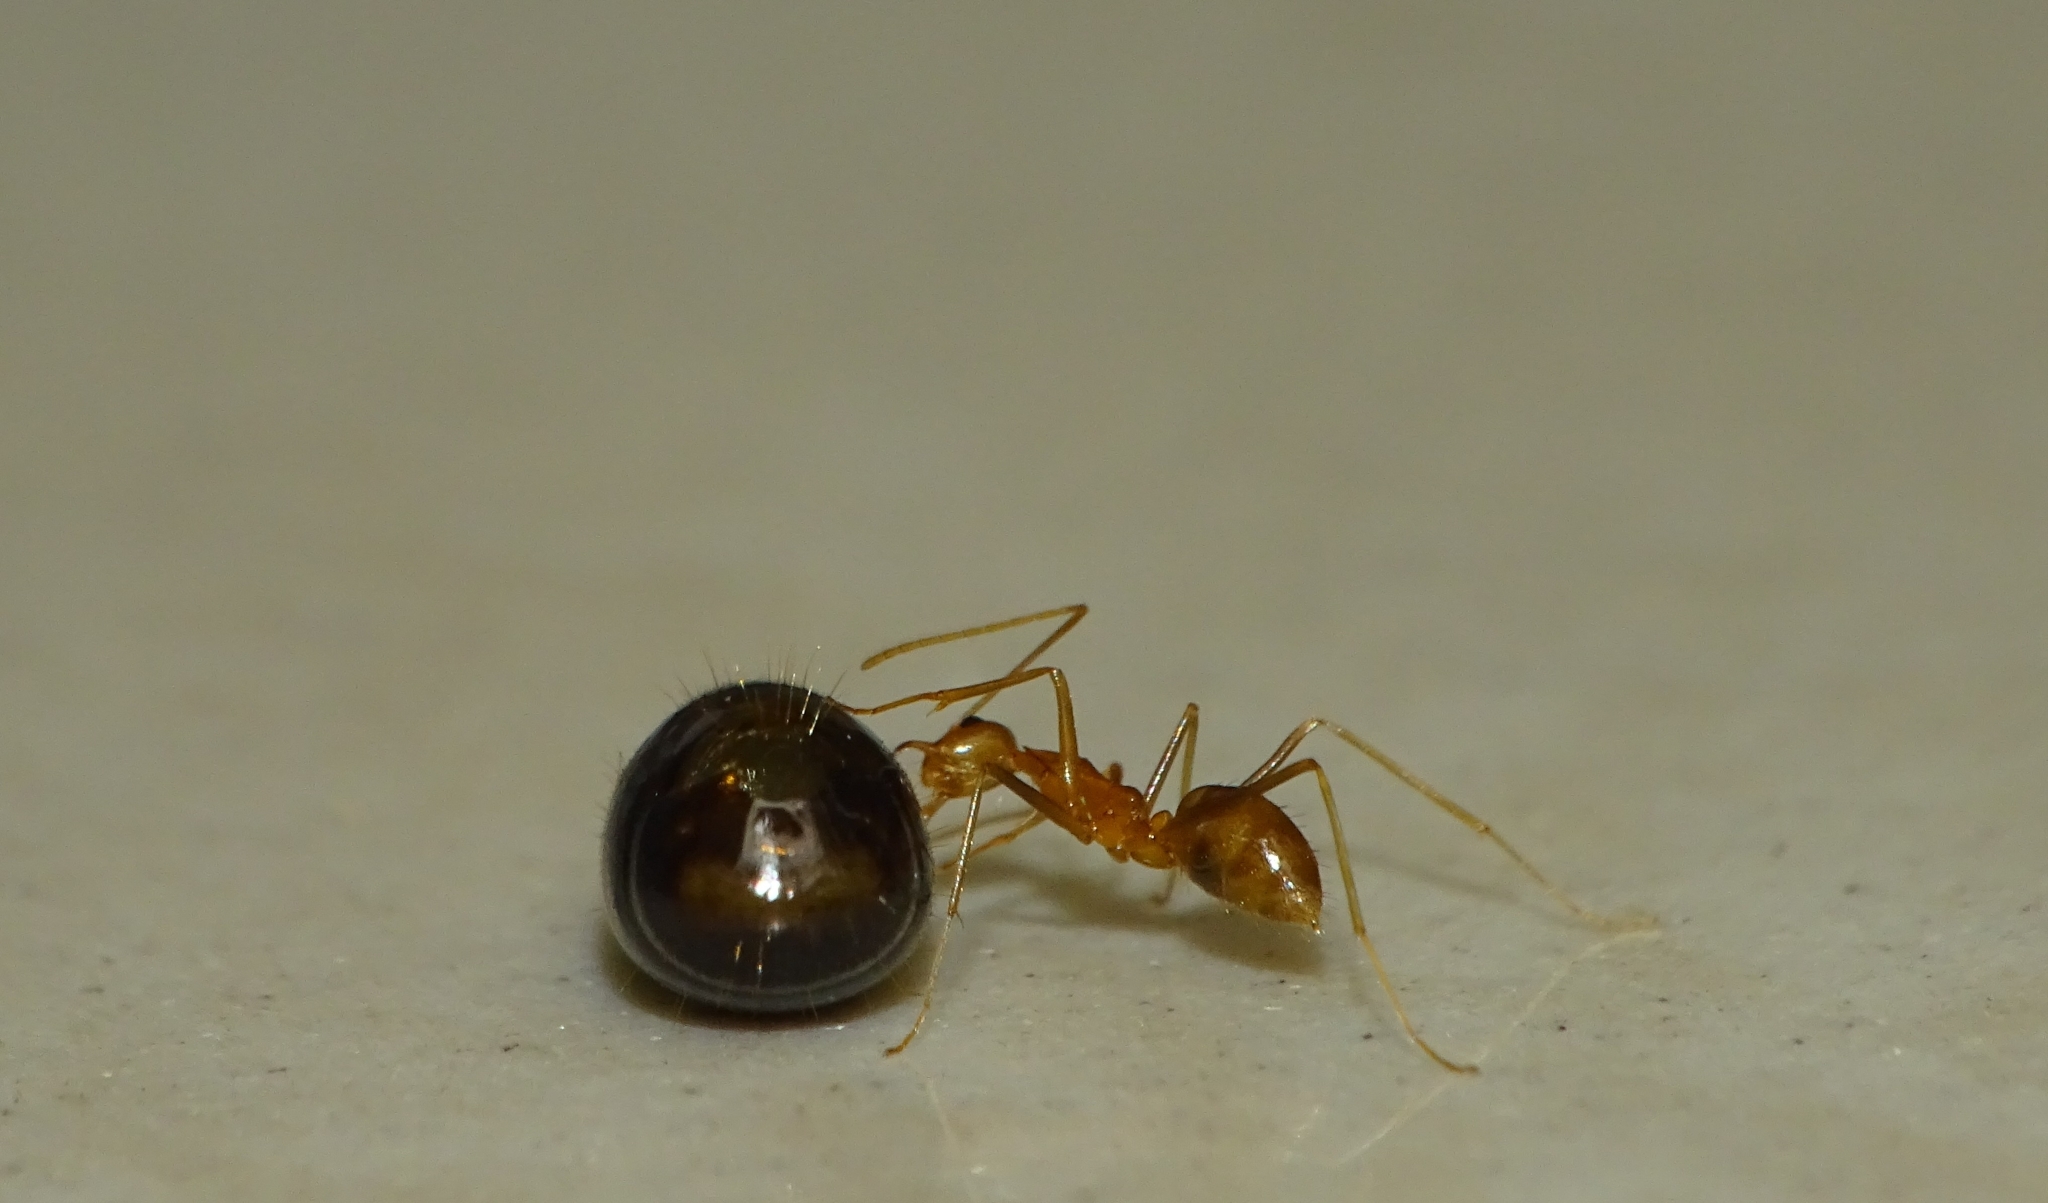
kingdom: Animalia
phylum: Arthropoda
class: Insecta
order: Hymenoptera
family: Formicidae
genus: Anoplolepis
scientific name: Anoplolepis gracilipes
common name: Ant
